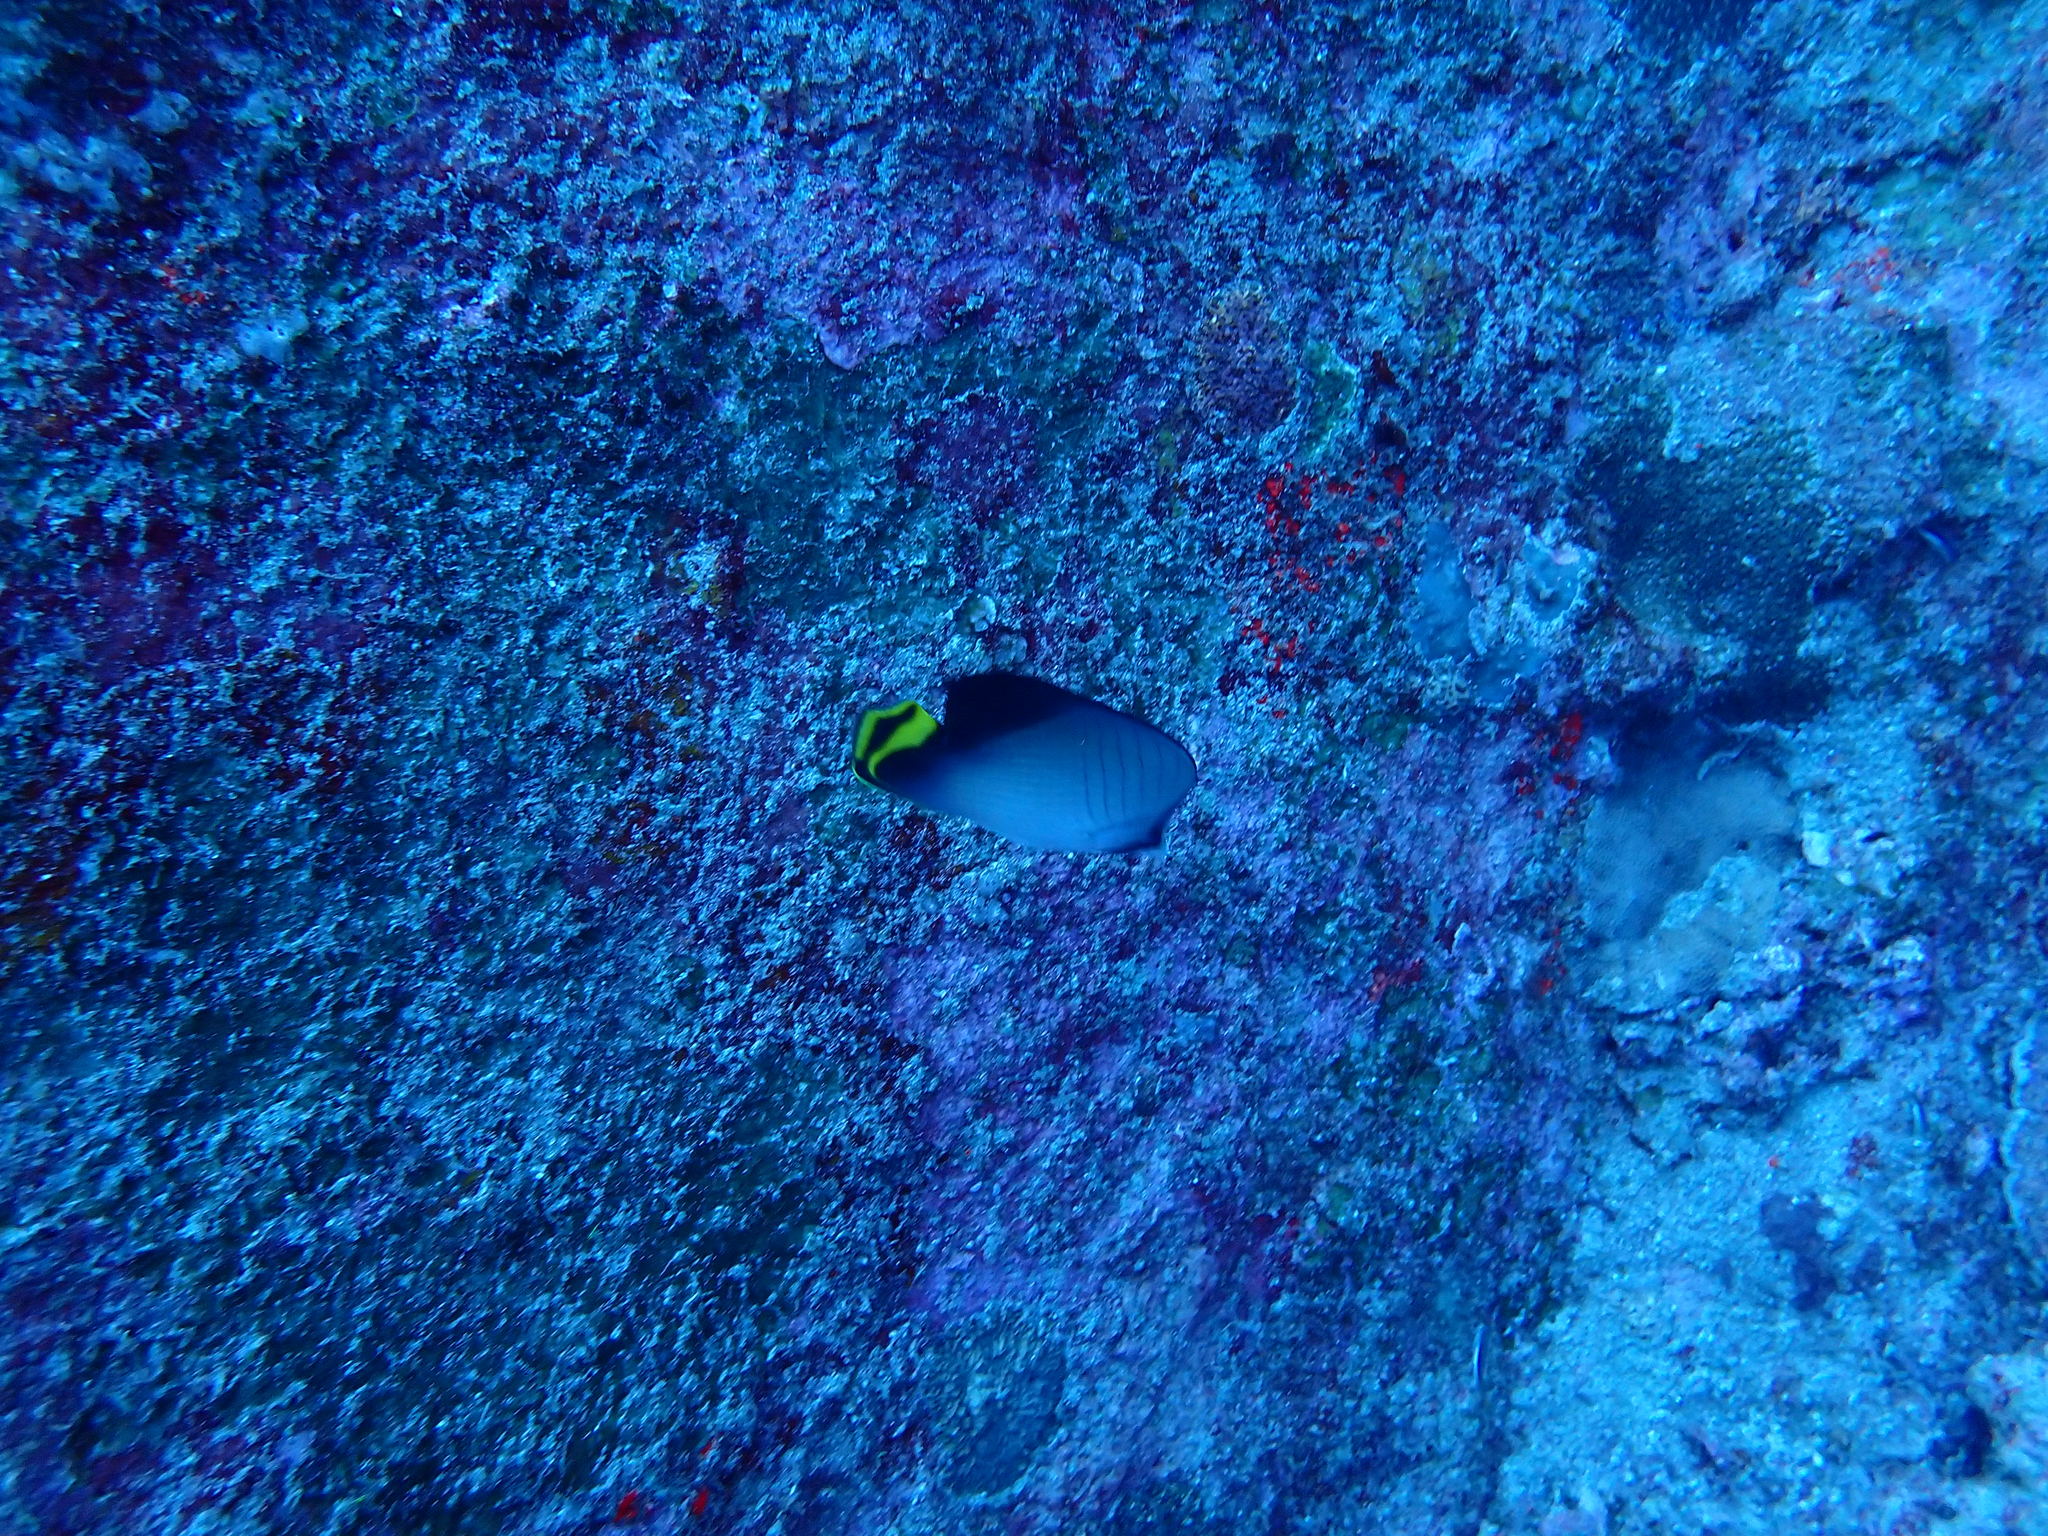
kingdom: Animalia
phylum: Chordata
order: Perciformes
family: Chaetodontidae
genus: Chaetodon
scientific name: Chaetodon decussatus
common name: Indian vagabond butterflyfish
